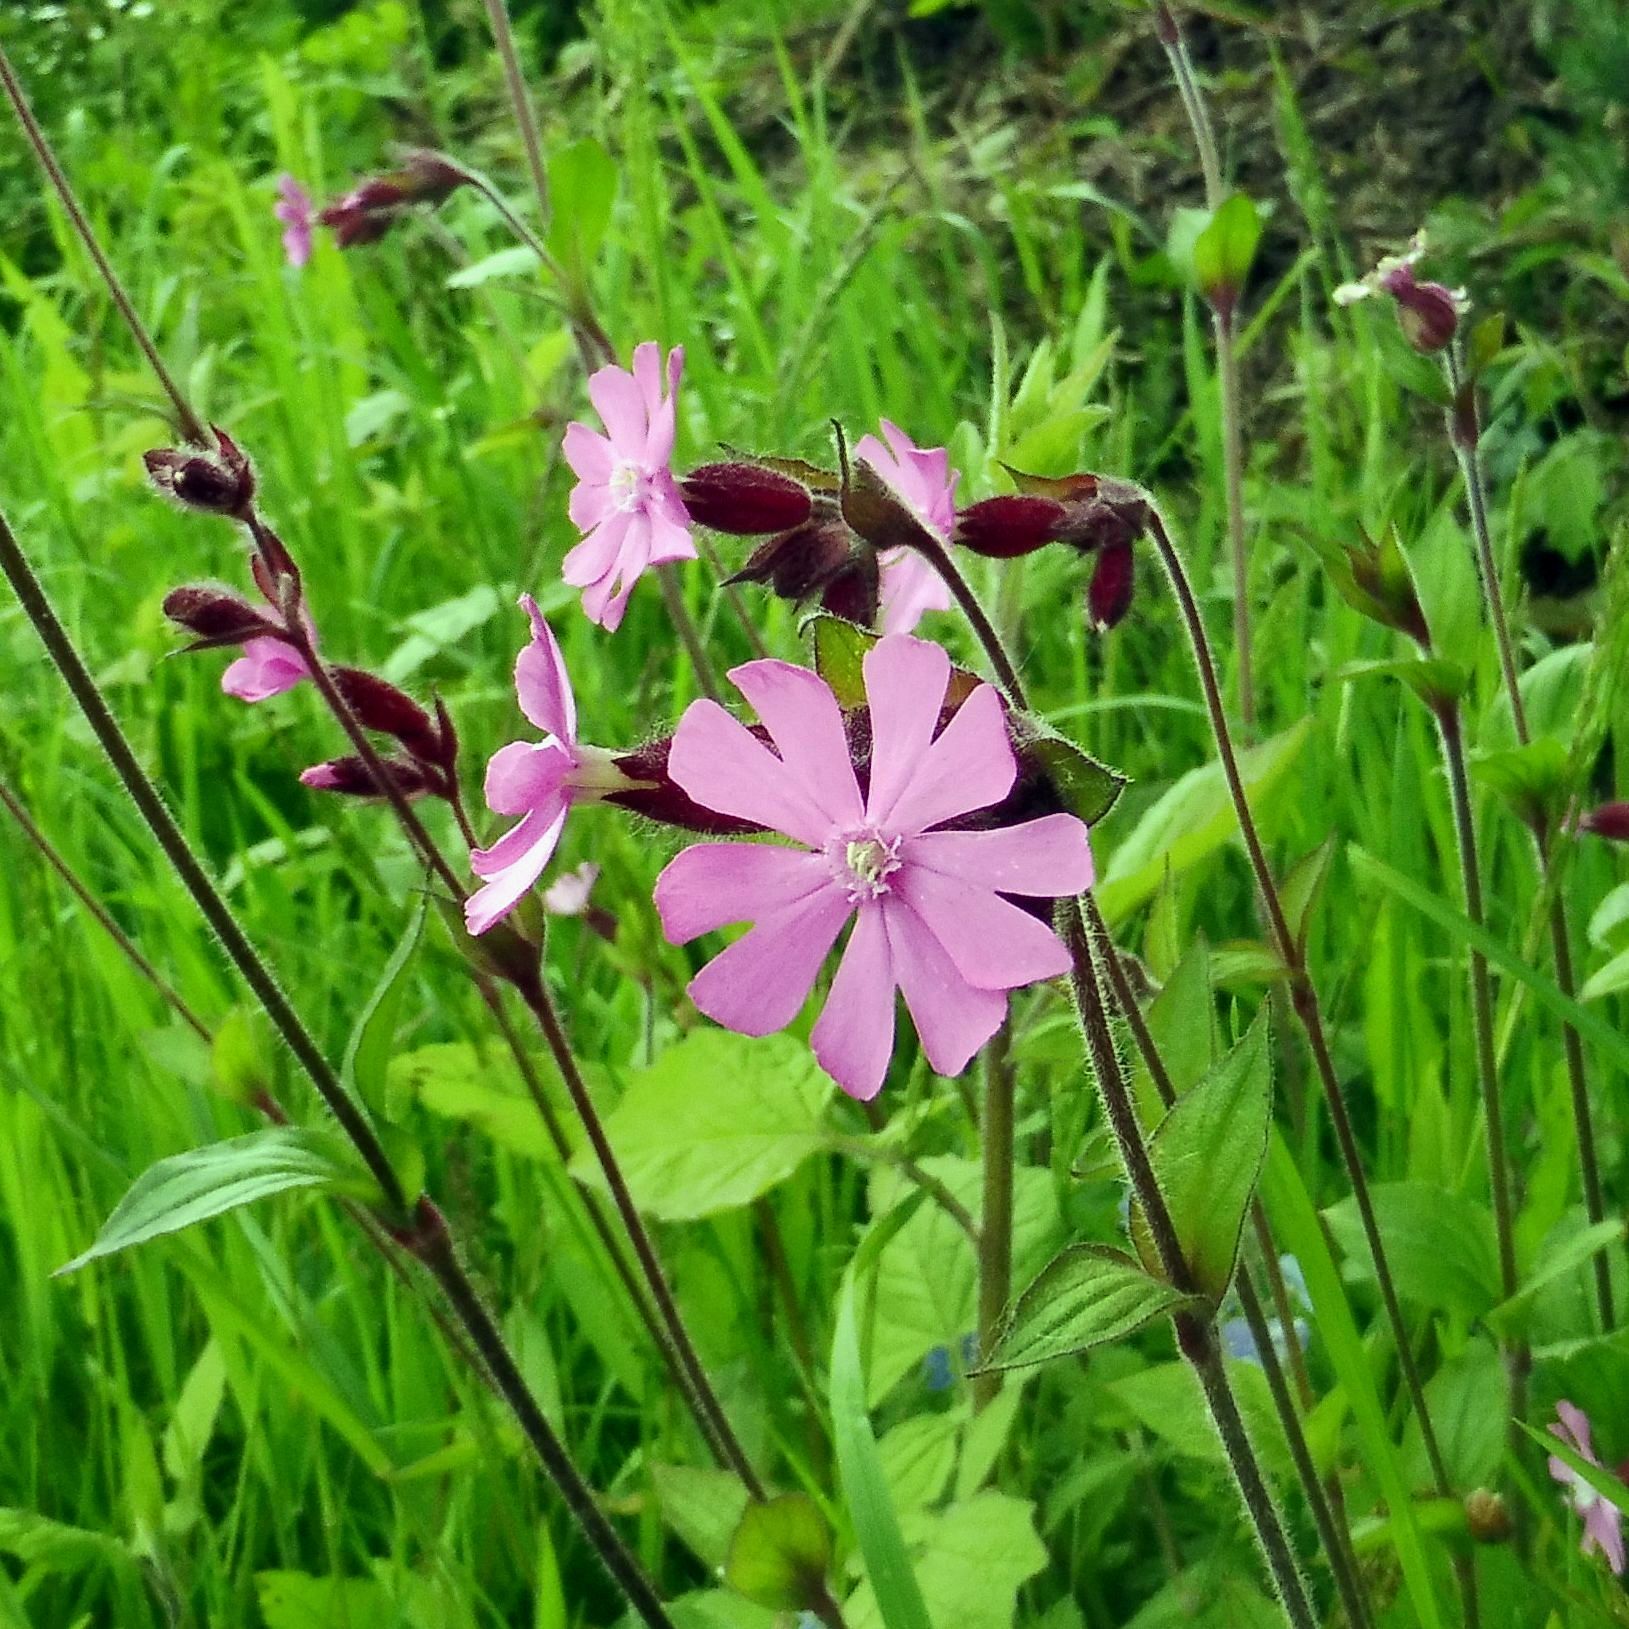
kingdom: Plantae
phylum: Tracheophyta
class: Magnoliopsida
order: Caryophyllales
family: Caryophyllaceae
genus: Silene
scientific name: Silene dioica
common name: Red campion
